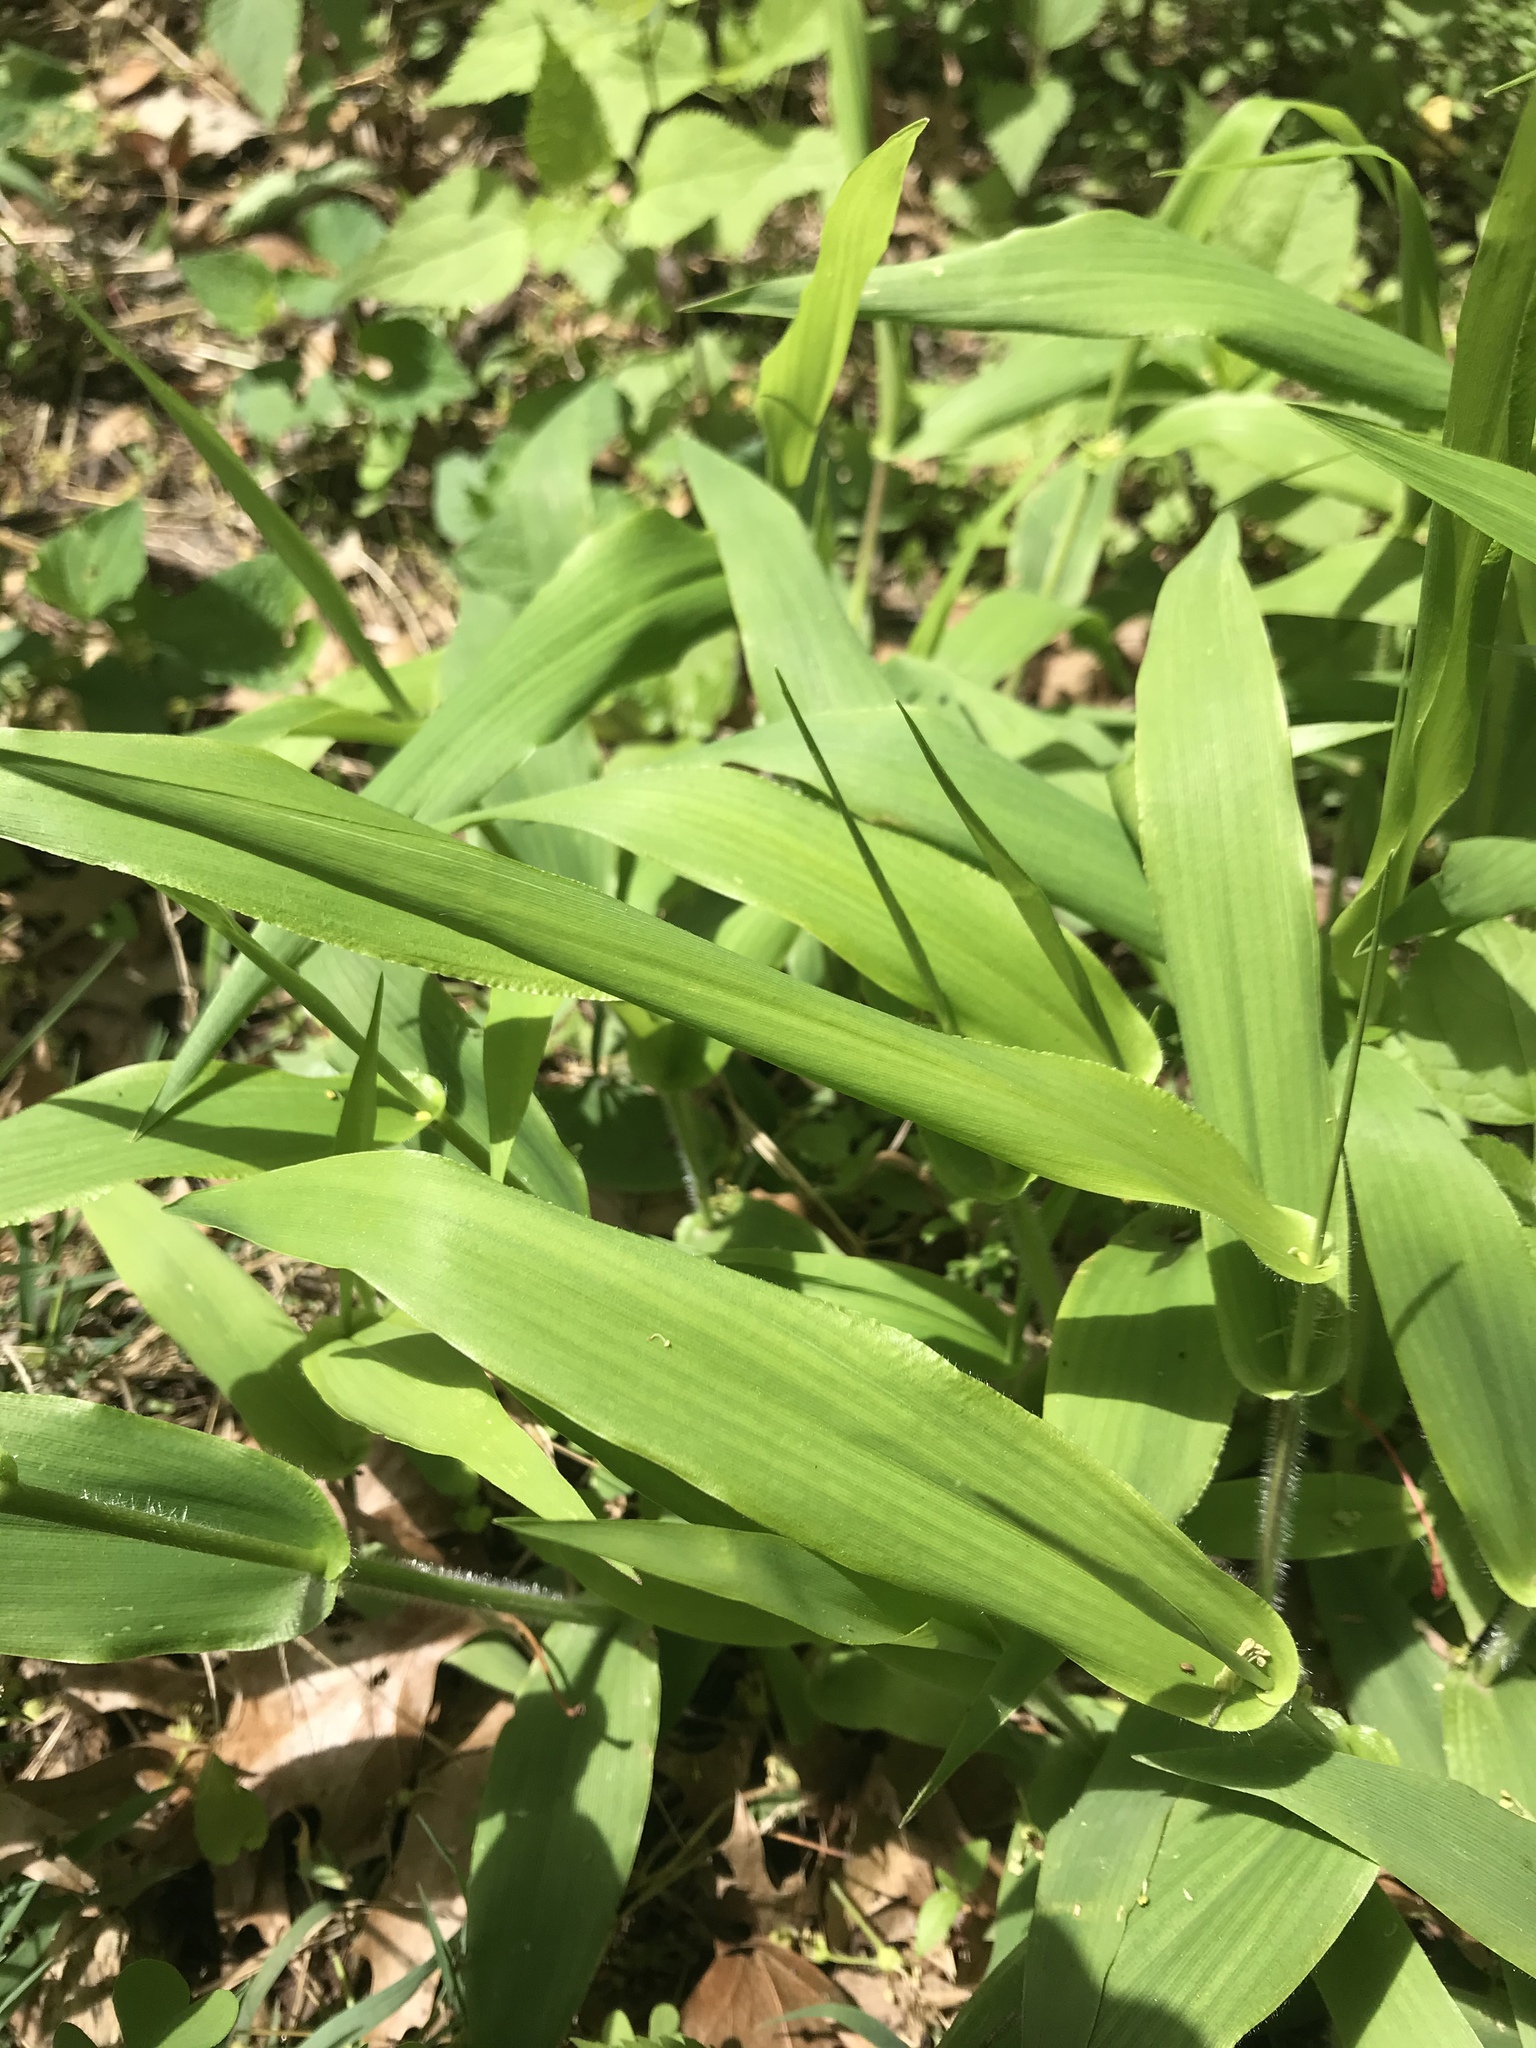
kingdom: Plantae
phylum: Tracheophyta
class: Liliopsida
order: Poales
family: Poaceae
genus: Dichanthelium
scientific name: Dichanthelium clandestinum
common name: Deer-tongue grass
